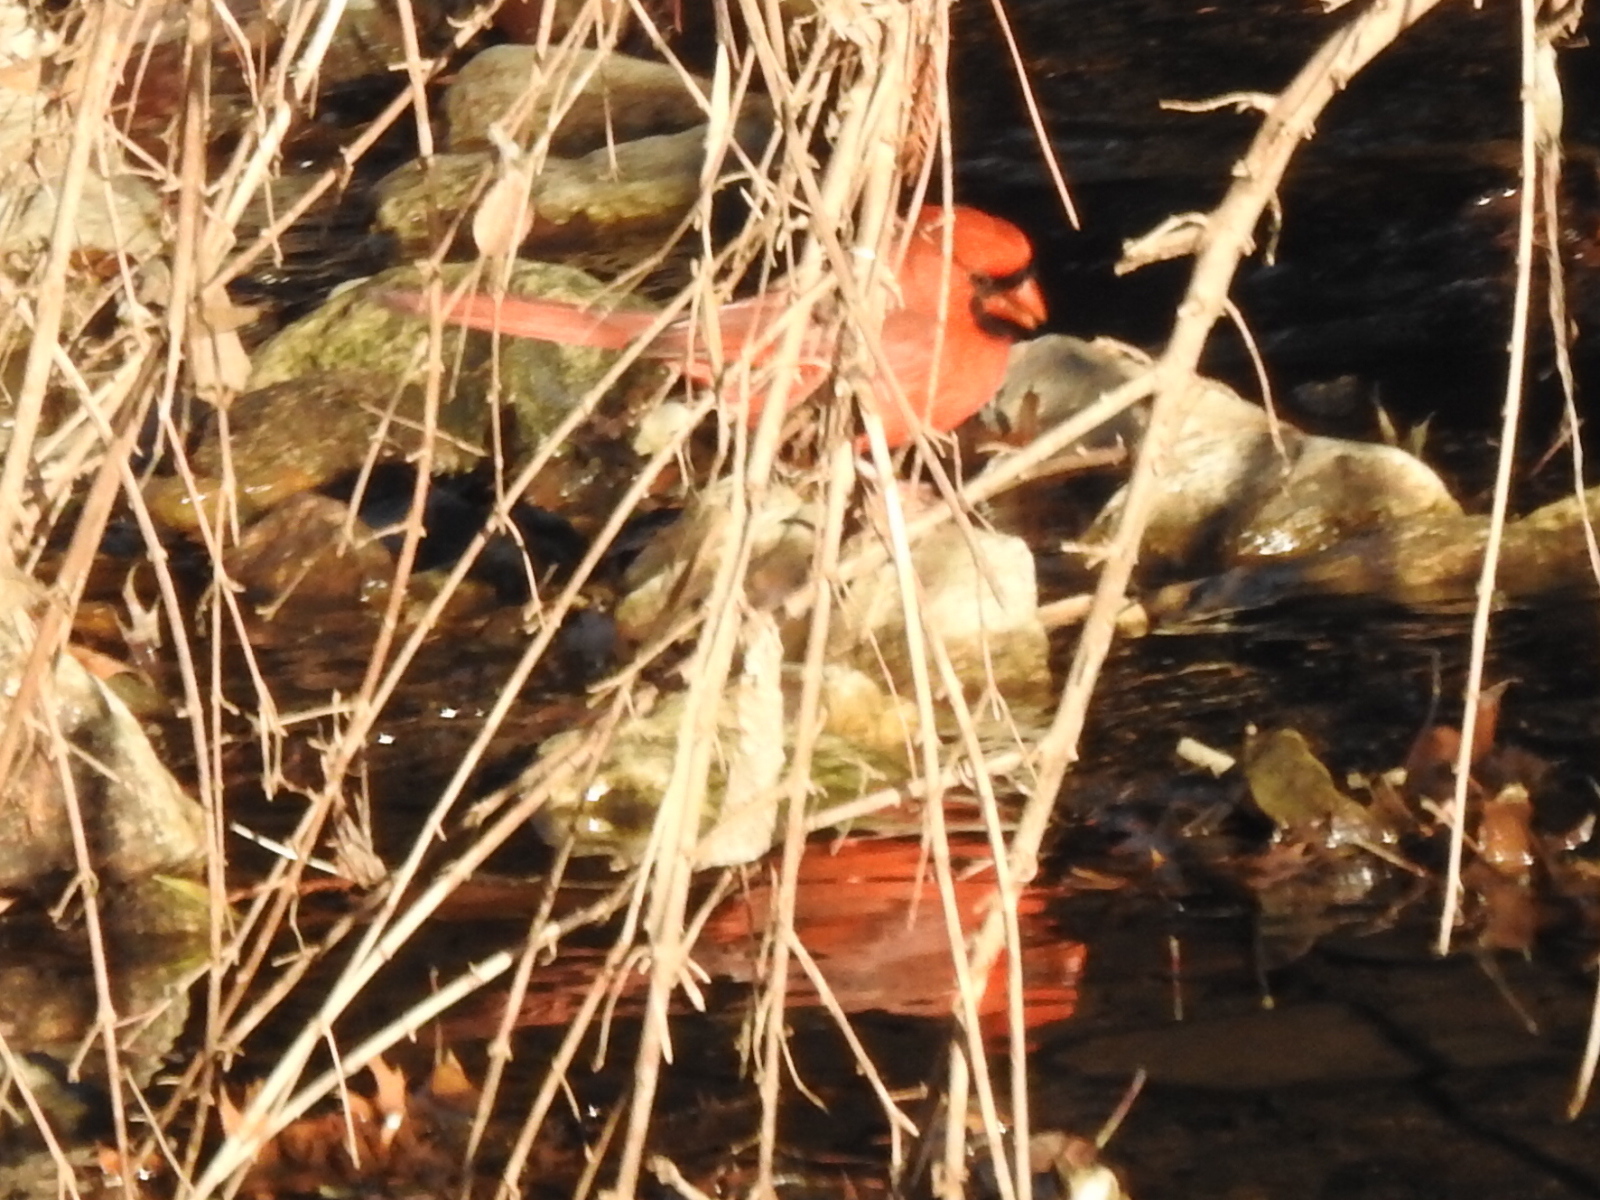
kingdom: Animalia
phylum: Chordata
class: Aves
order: Passeriformes
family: Cardinalidae
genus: Cardinalis
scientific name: Cardinalis cardinalis
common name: Northern cardinal
